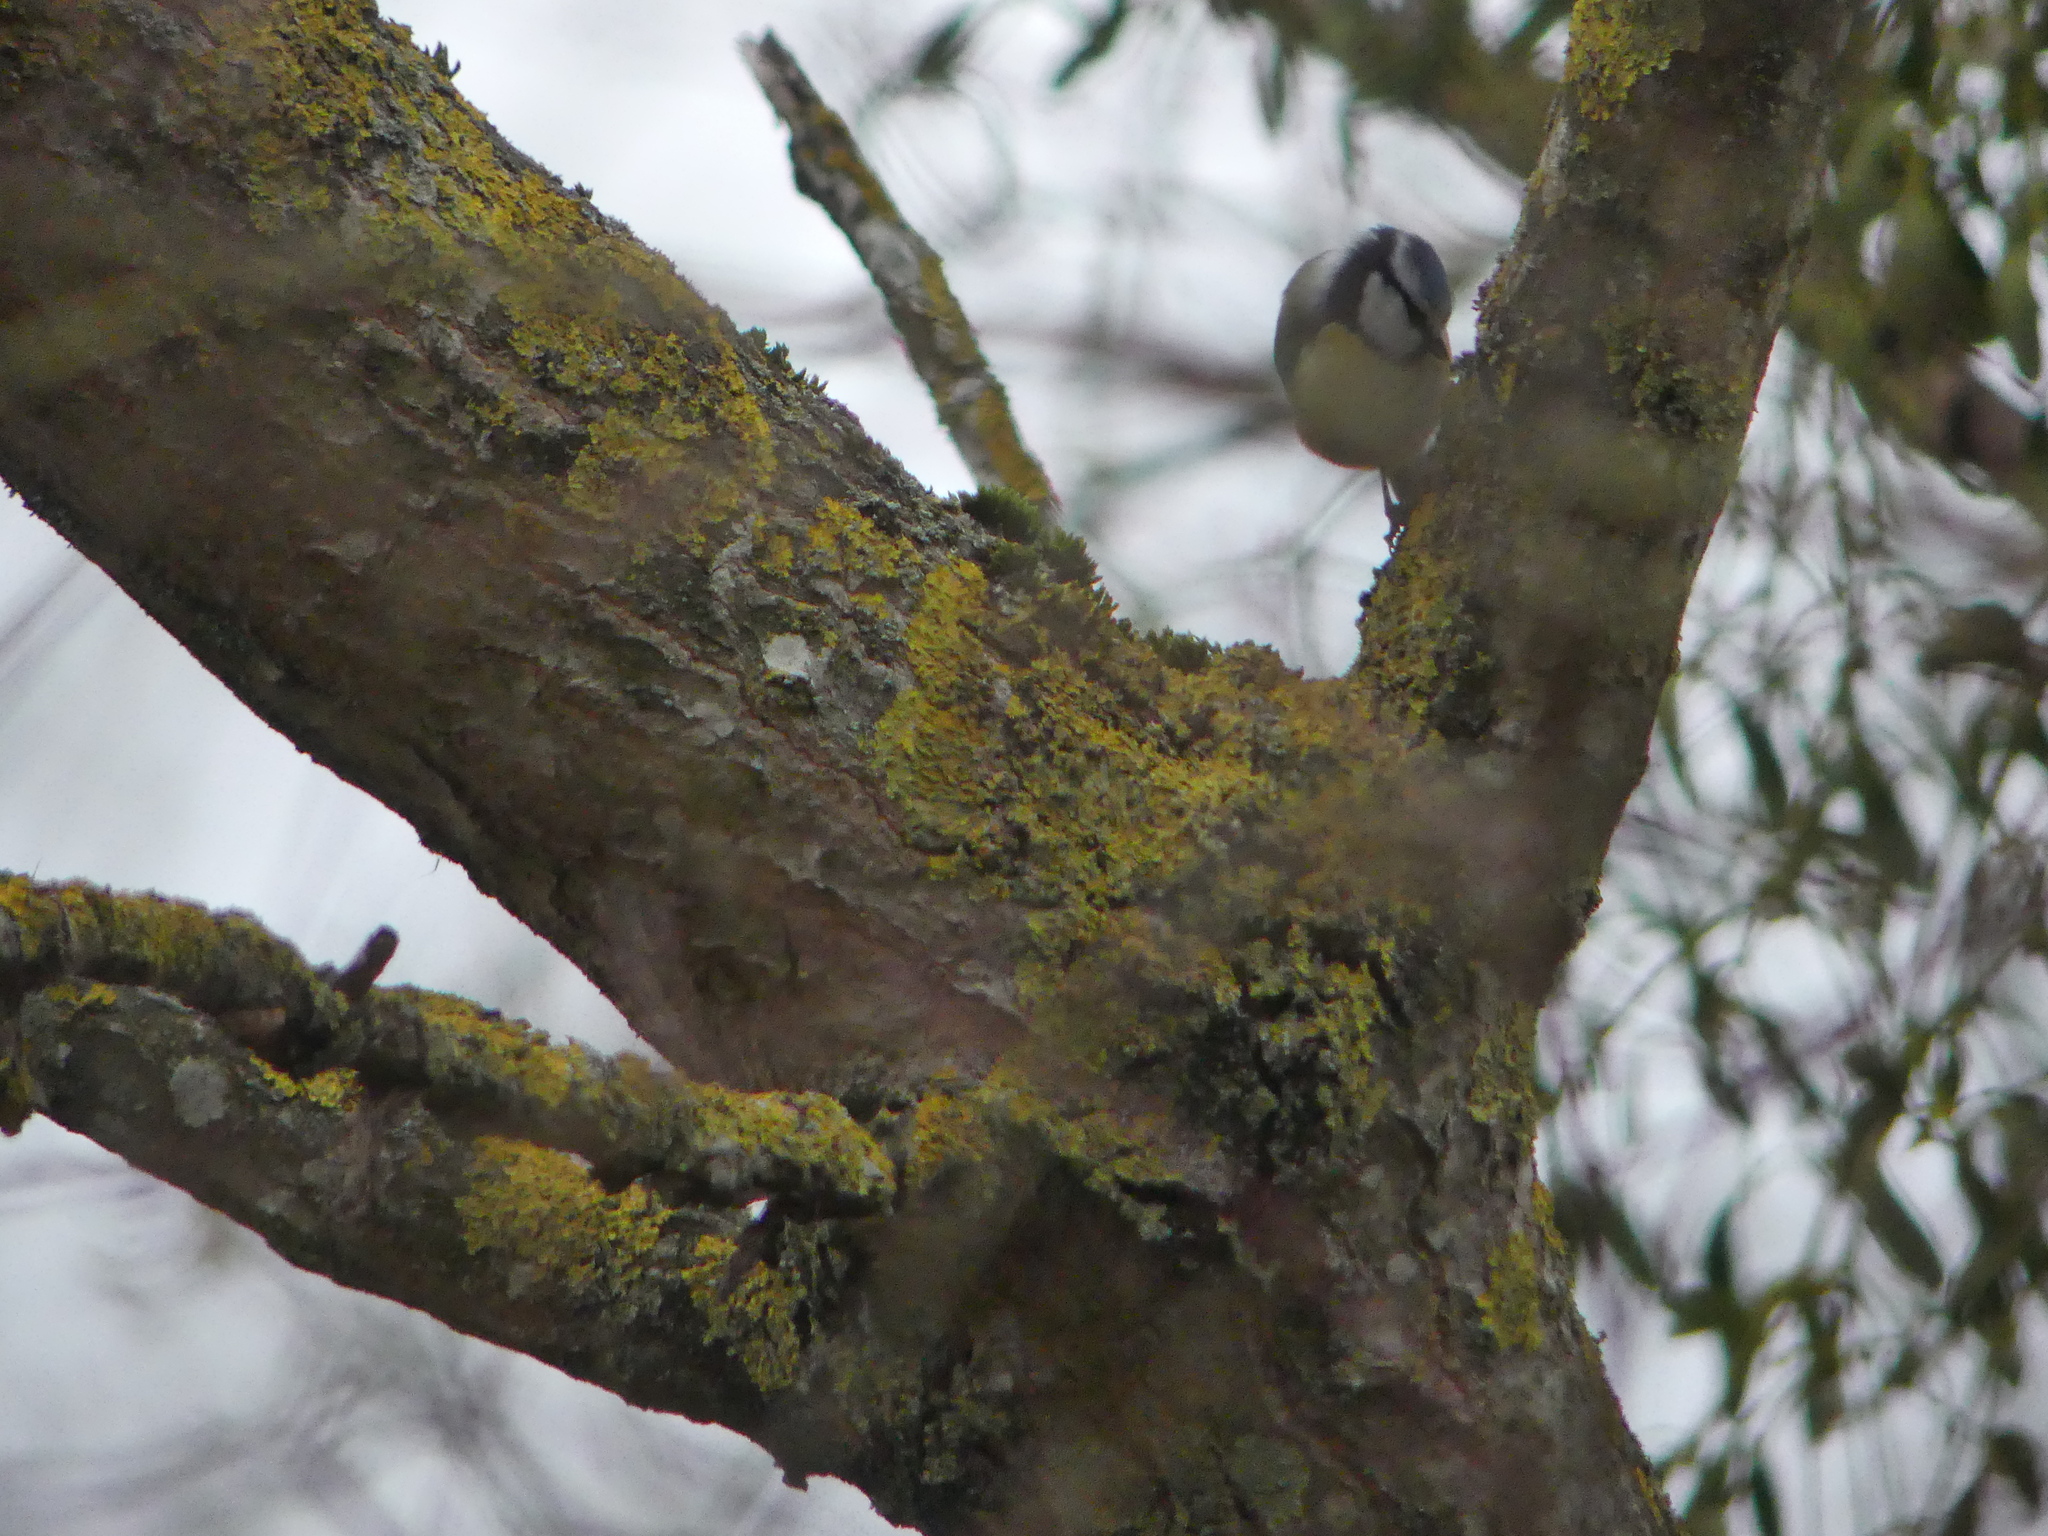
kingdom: Animalia
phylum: Chordata
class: Aves
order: Passeriformes
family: Paridae
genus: Cyanistes
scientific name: Cyanistes caeruleus
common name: Eurasian blue tit
